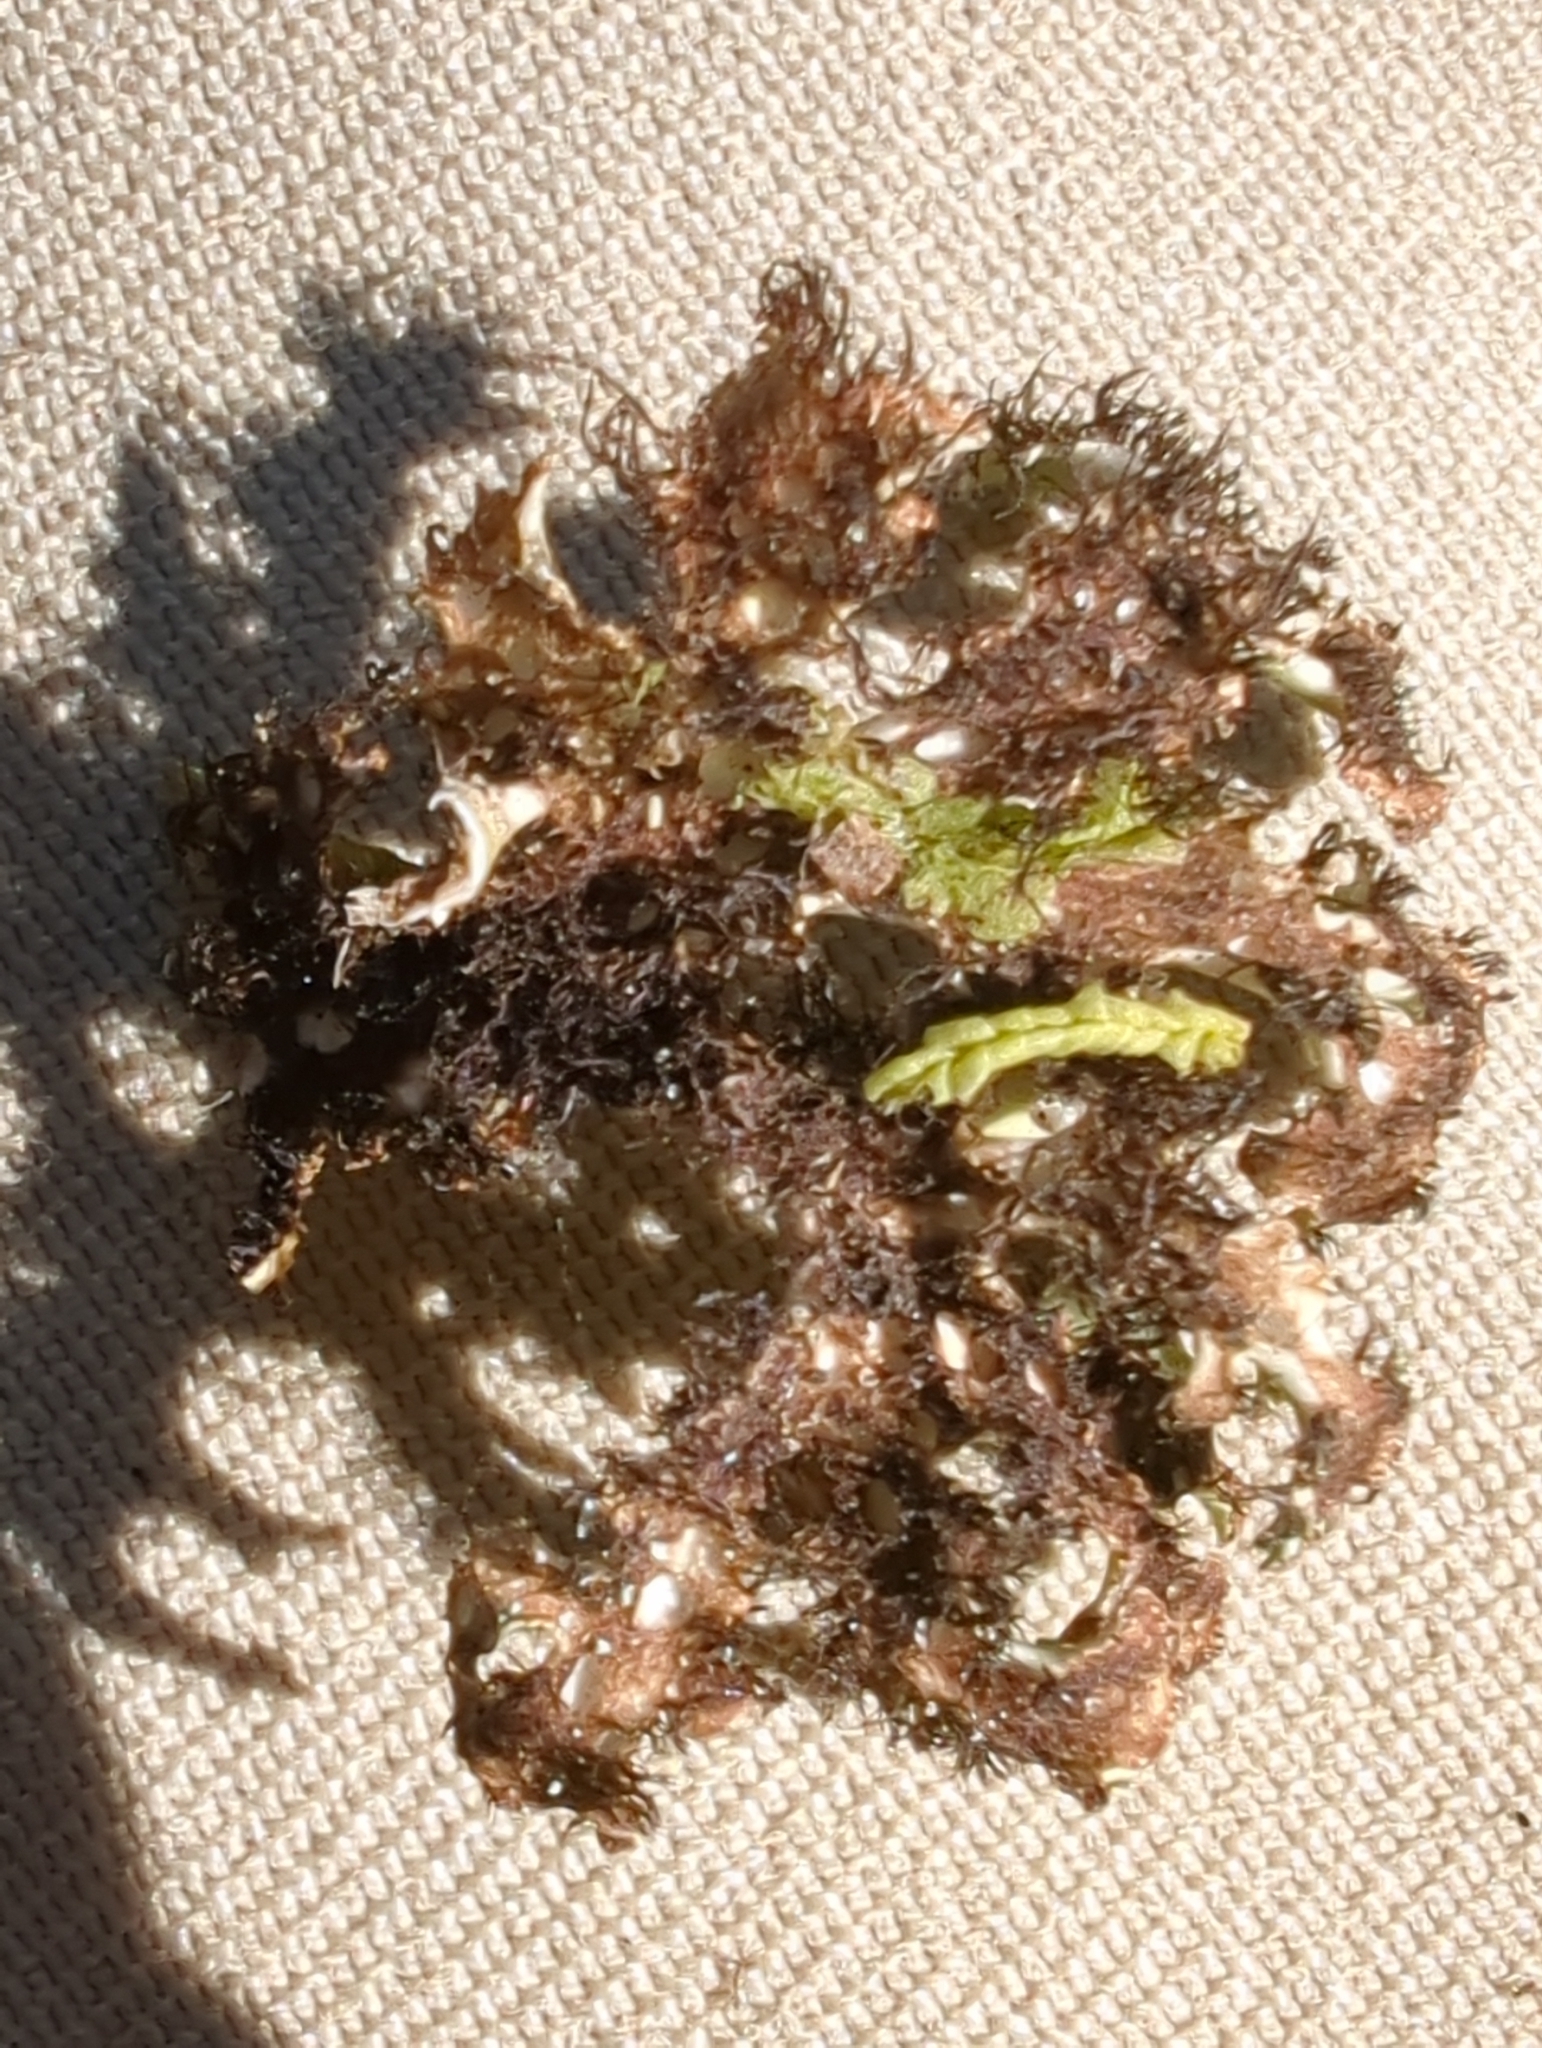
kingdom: Fungi
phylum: Ascomycota
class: Lecanoromycetes
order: Lecanorales
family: Cladoniaceae
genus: Cladia
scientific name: Cladia muelleri
